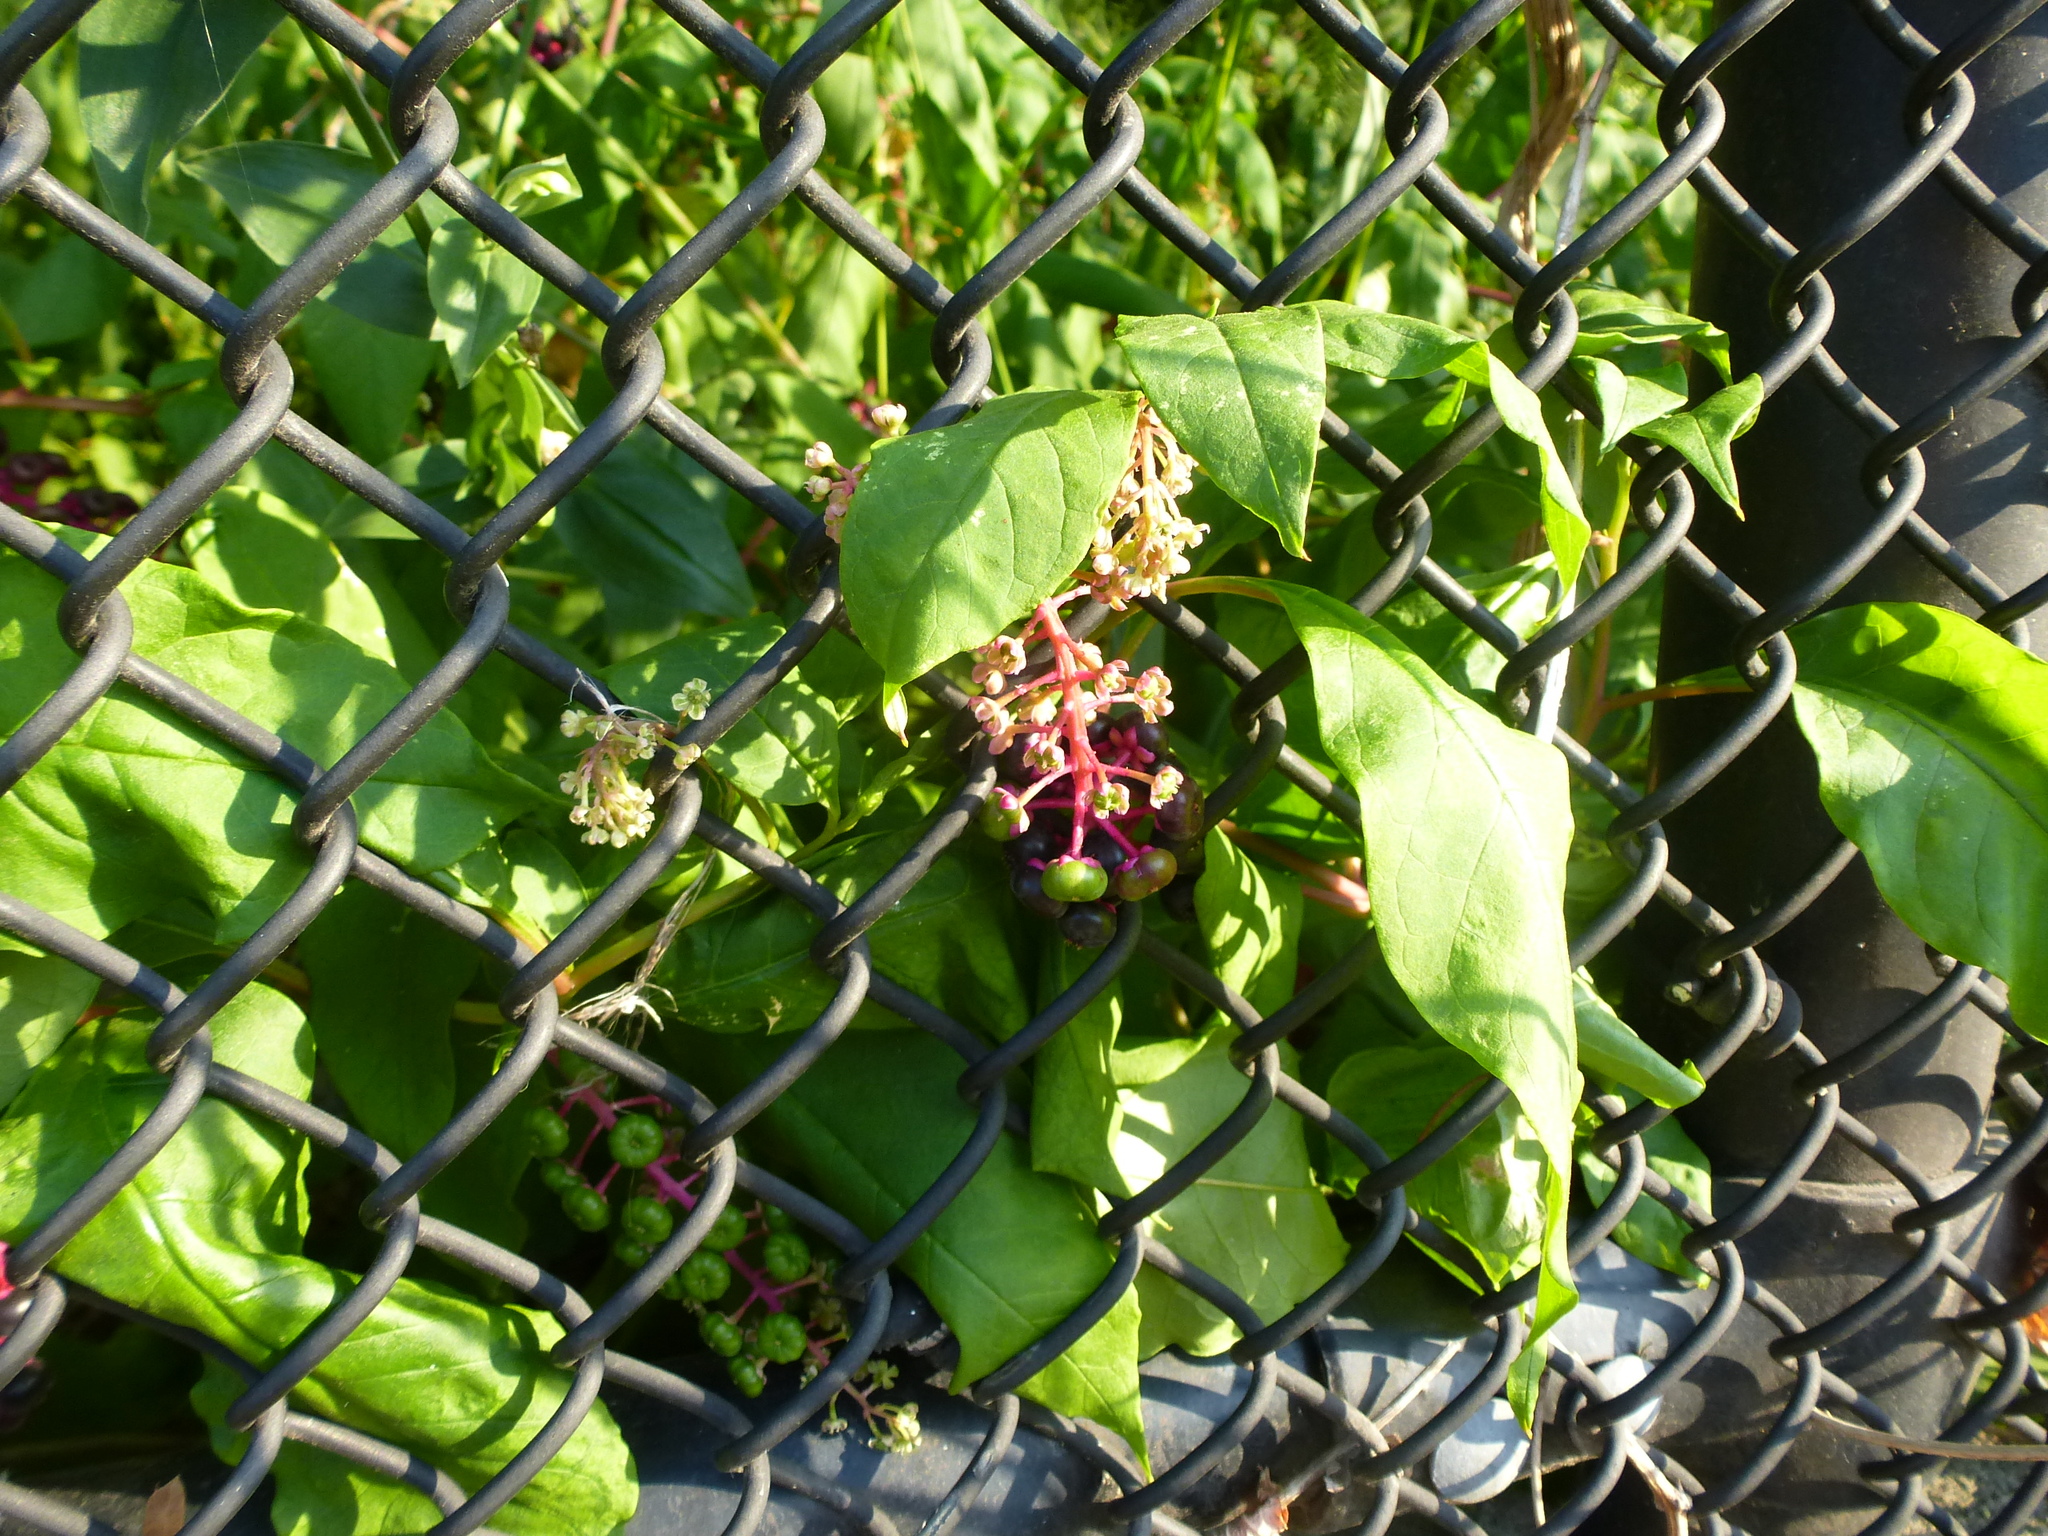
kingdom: Plantae
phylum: Tracheophyta
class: Magnoliopsida
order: Caryophyllales
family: Phytolaccaceae
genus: Phytolacca
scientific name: Phytolacca americana
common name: American pokeweed
